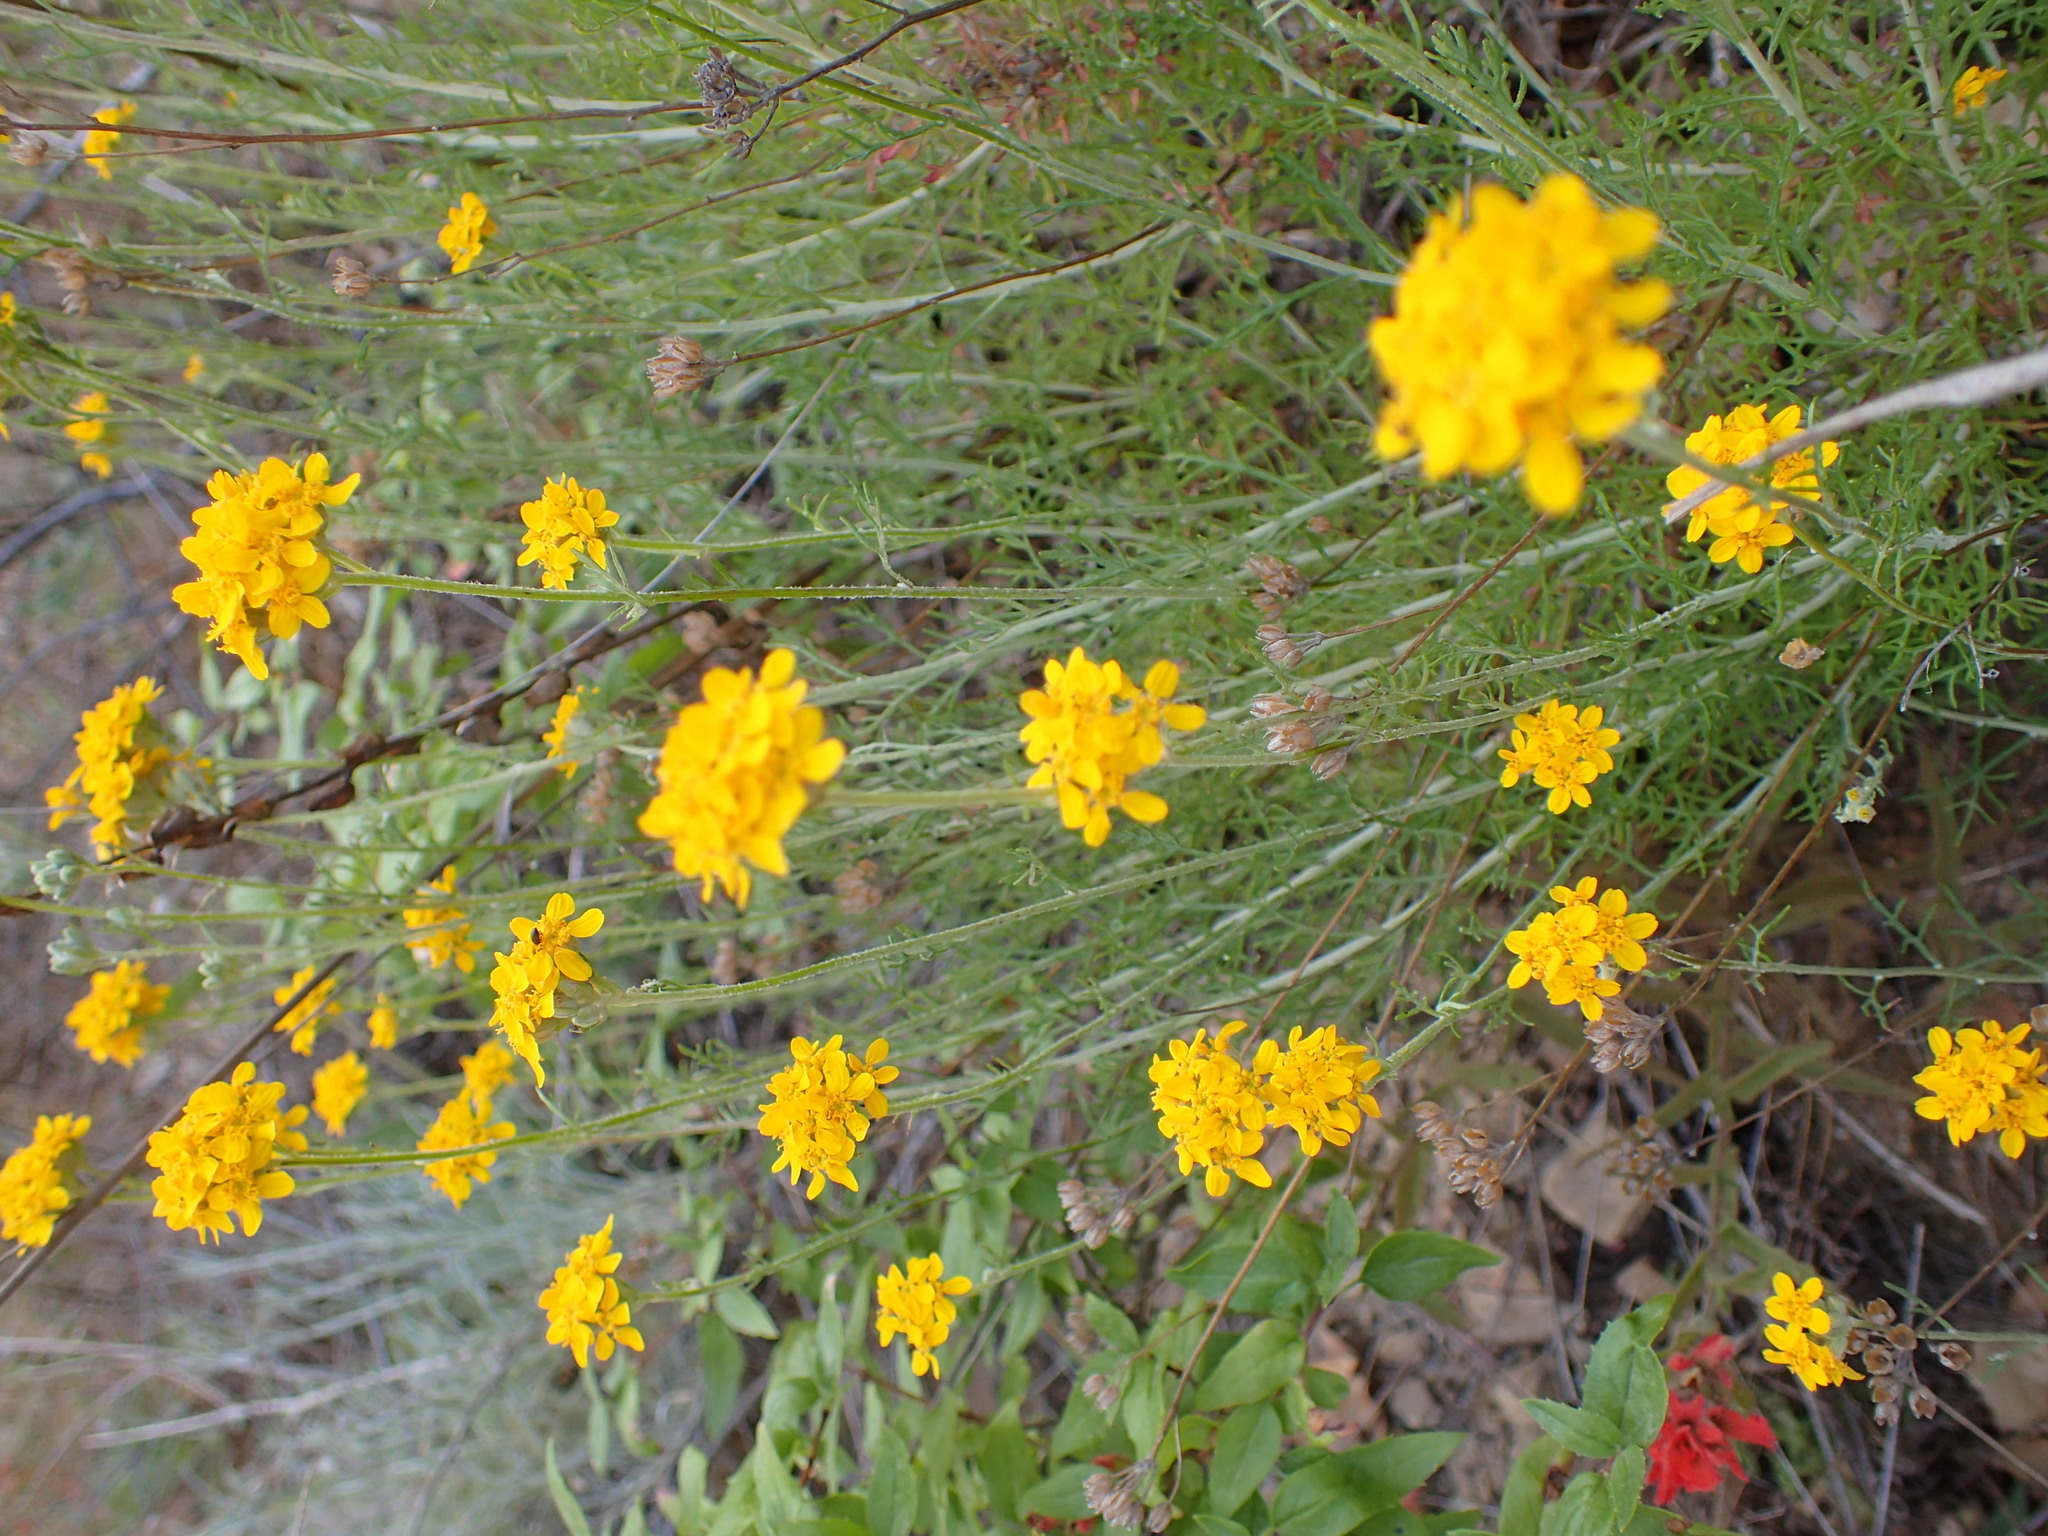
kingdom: Plantae
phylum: Tracheophyta
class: Magnoliopsida
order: Asterales
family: Asteraceae
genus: Eriophyllum
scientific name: Eriophyllum confertiflorum
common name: Golden-yarrow
